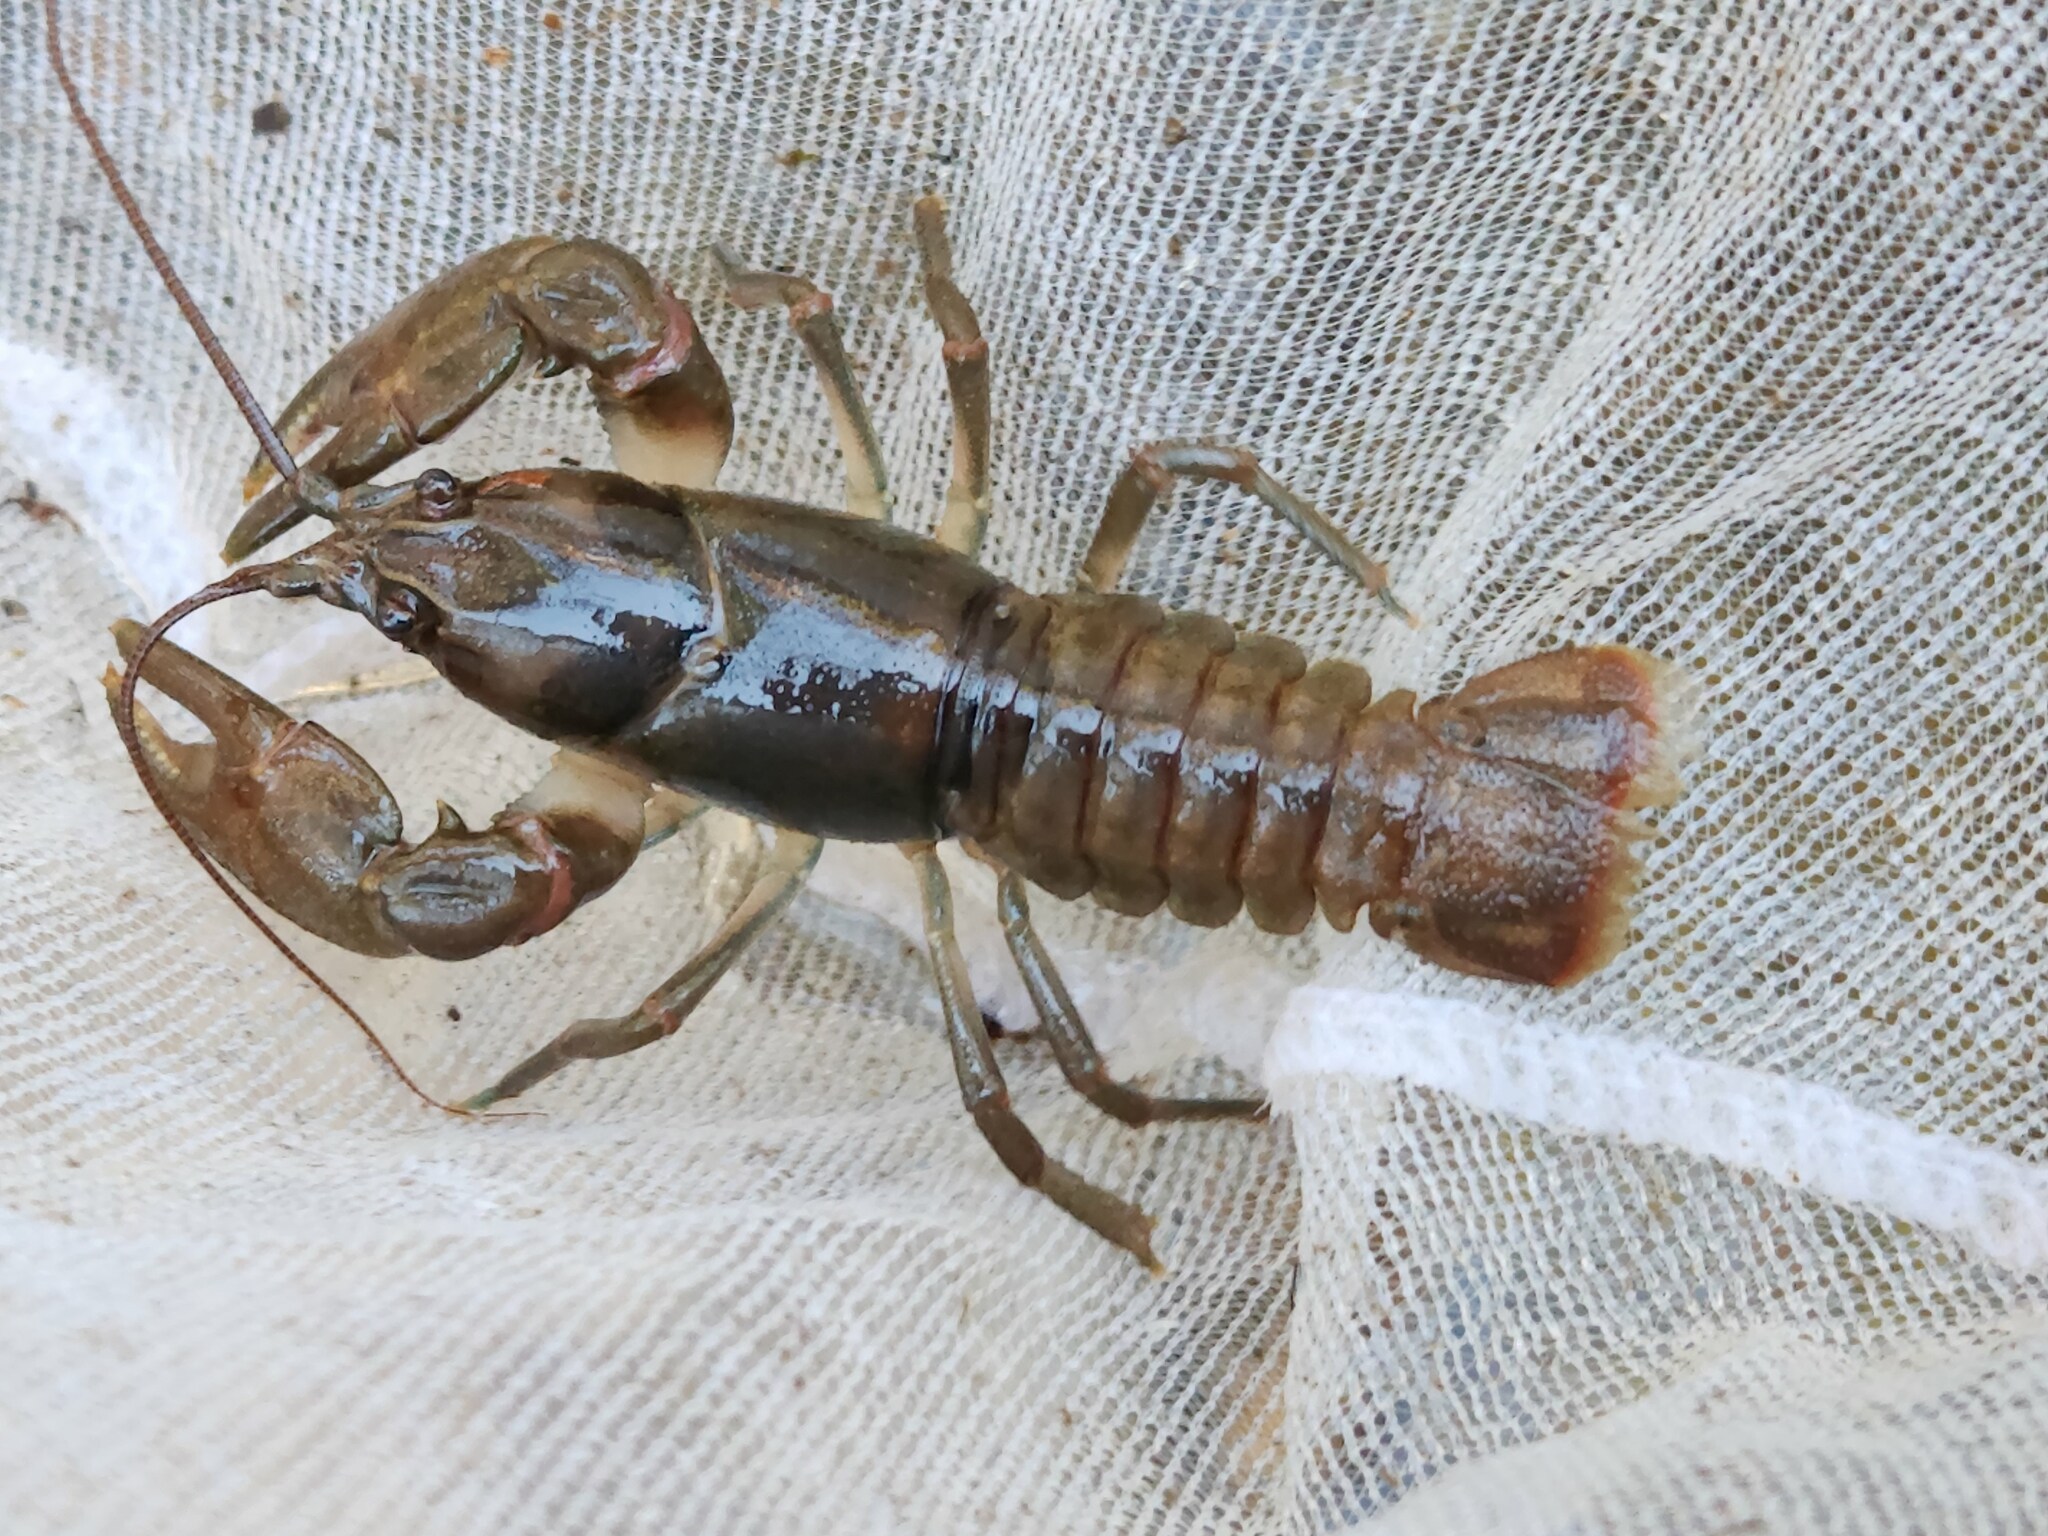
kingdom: Animalia
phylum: Arthropoda
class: Malacostraca
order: Decapoda
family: Cambaridae
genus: Cambarus
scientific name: Cambarus bartonii
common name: Appalachian brook crayfish
